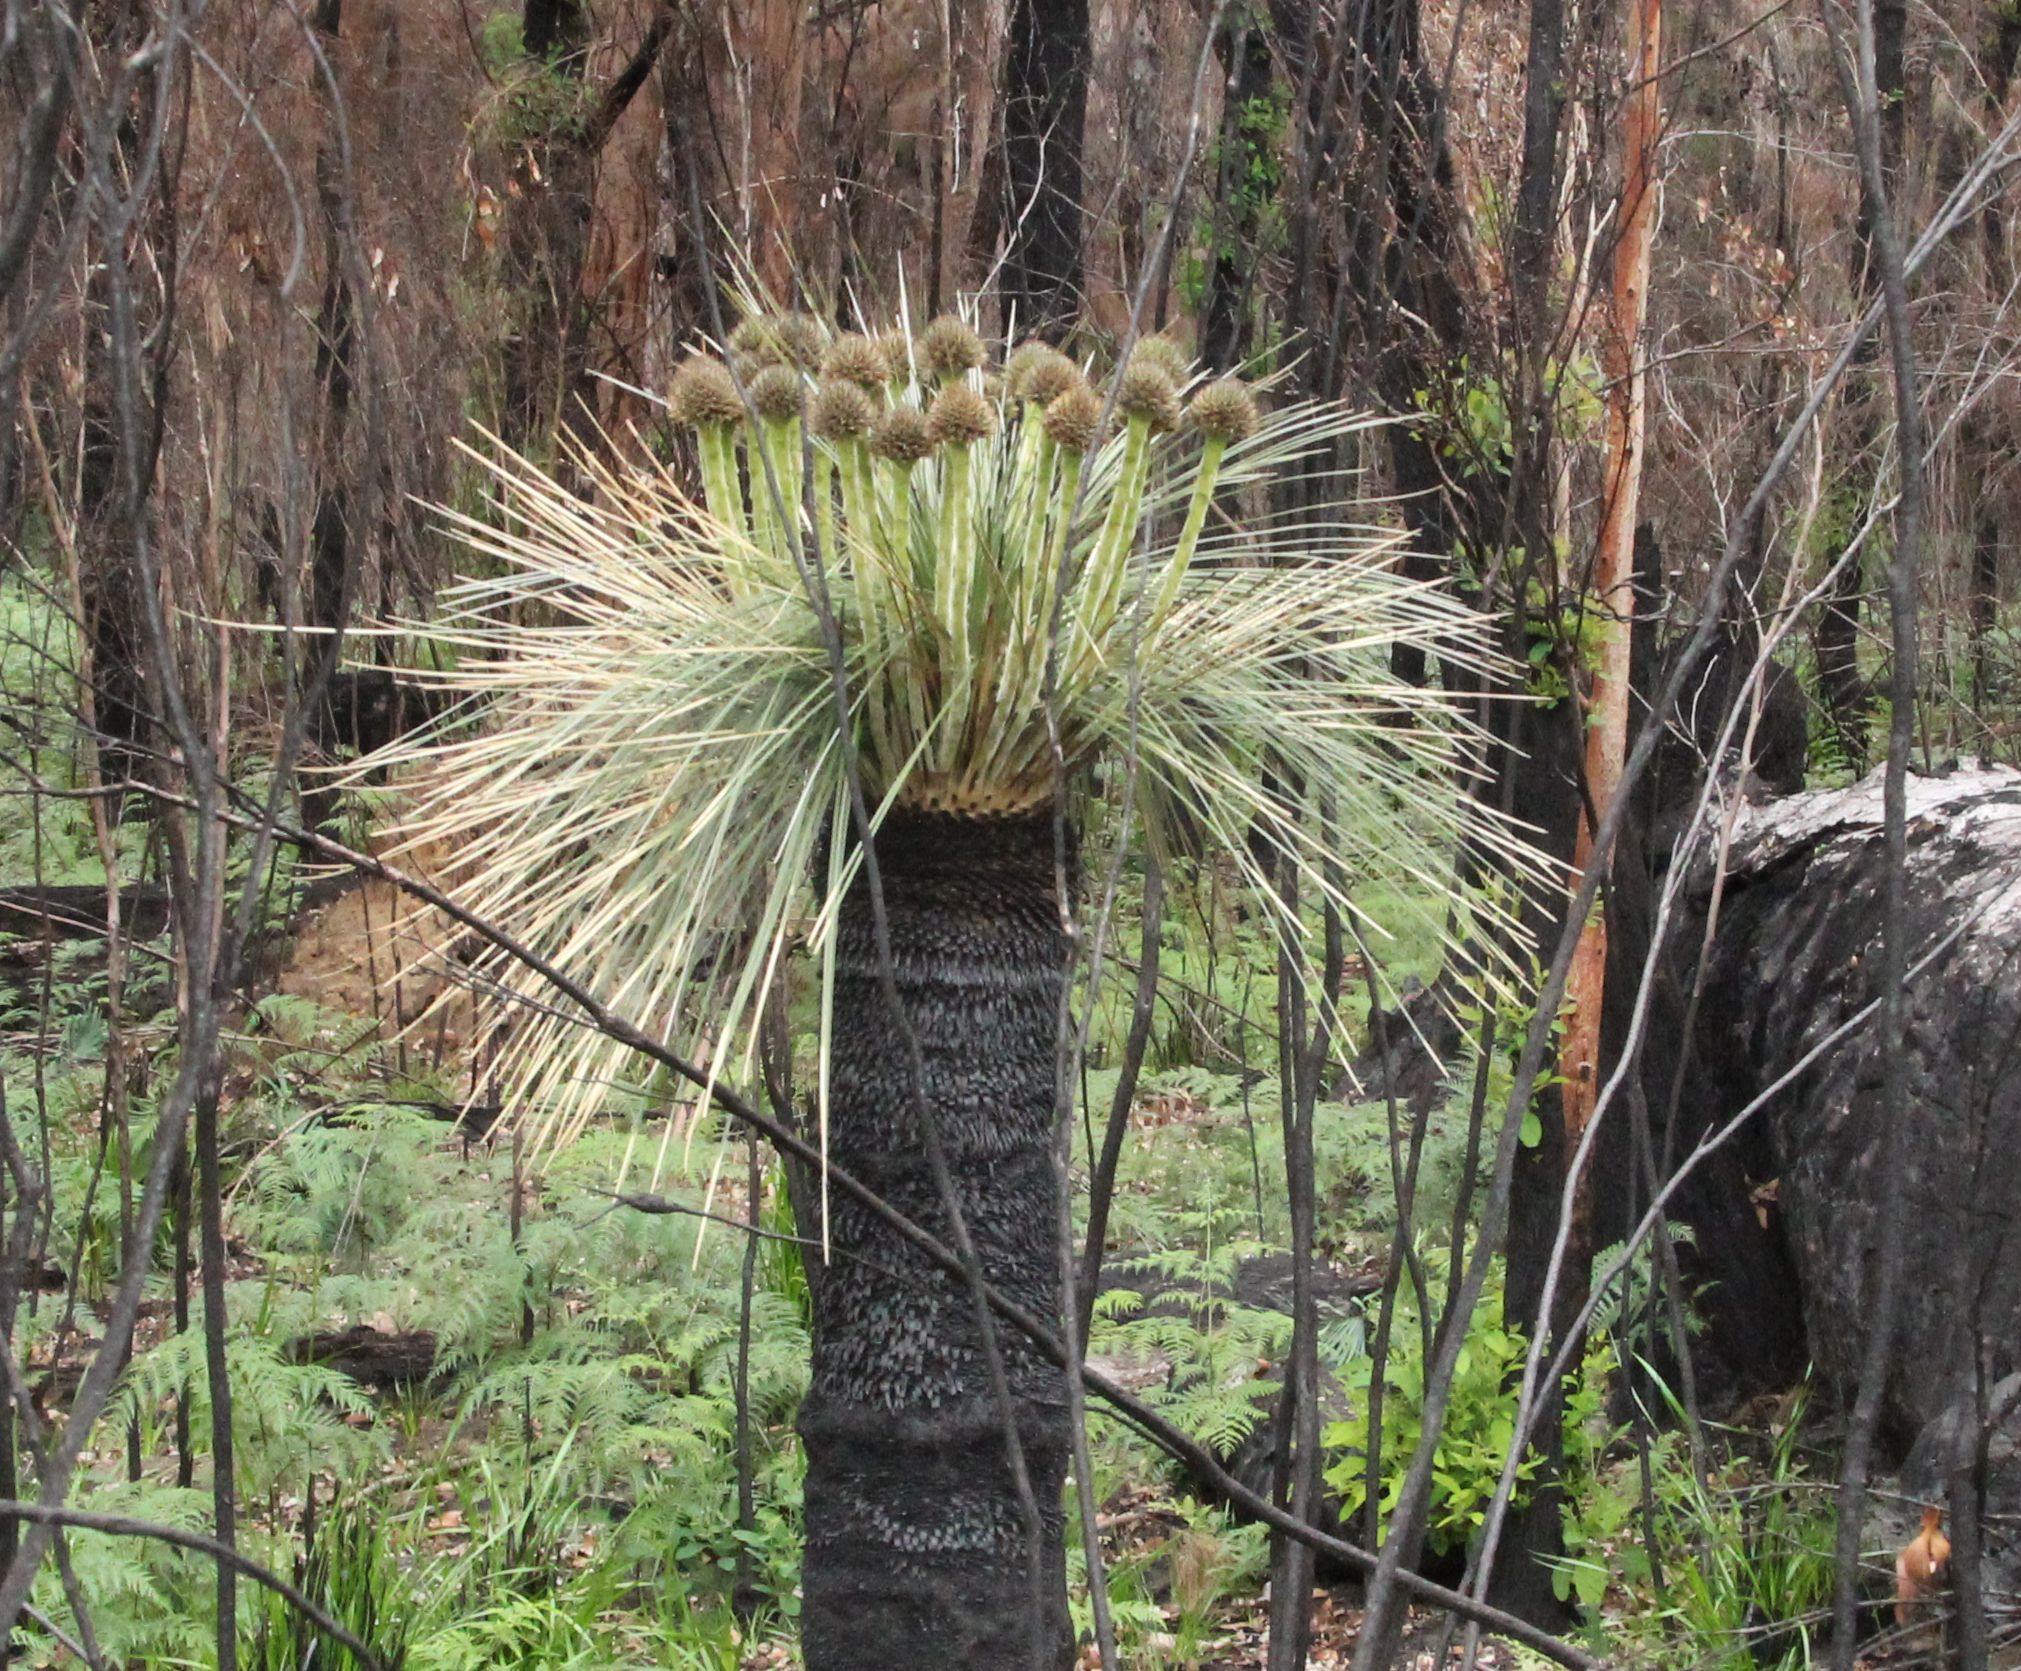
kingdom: Plantae
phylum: Tracheophyta
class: Liliopsida
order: Arecales
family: Dasypogonaceae
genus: Kingia
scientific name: Kingia australis
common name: Black gin
